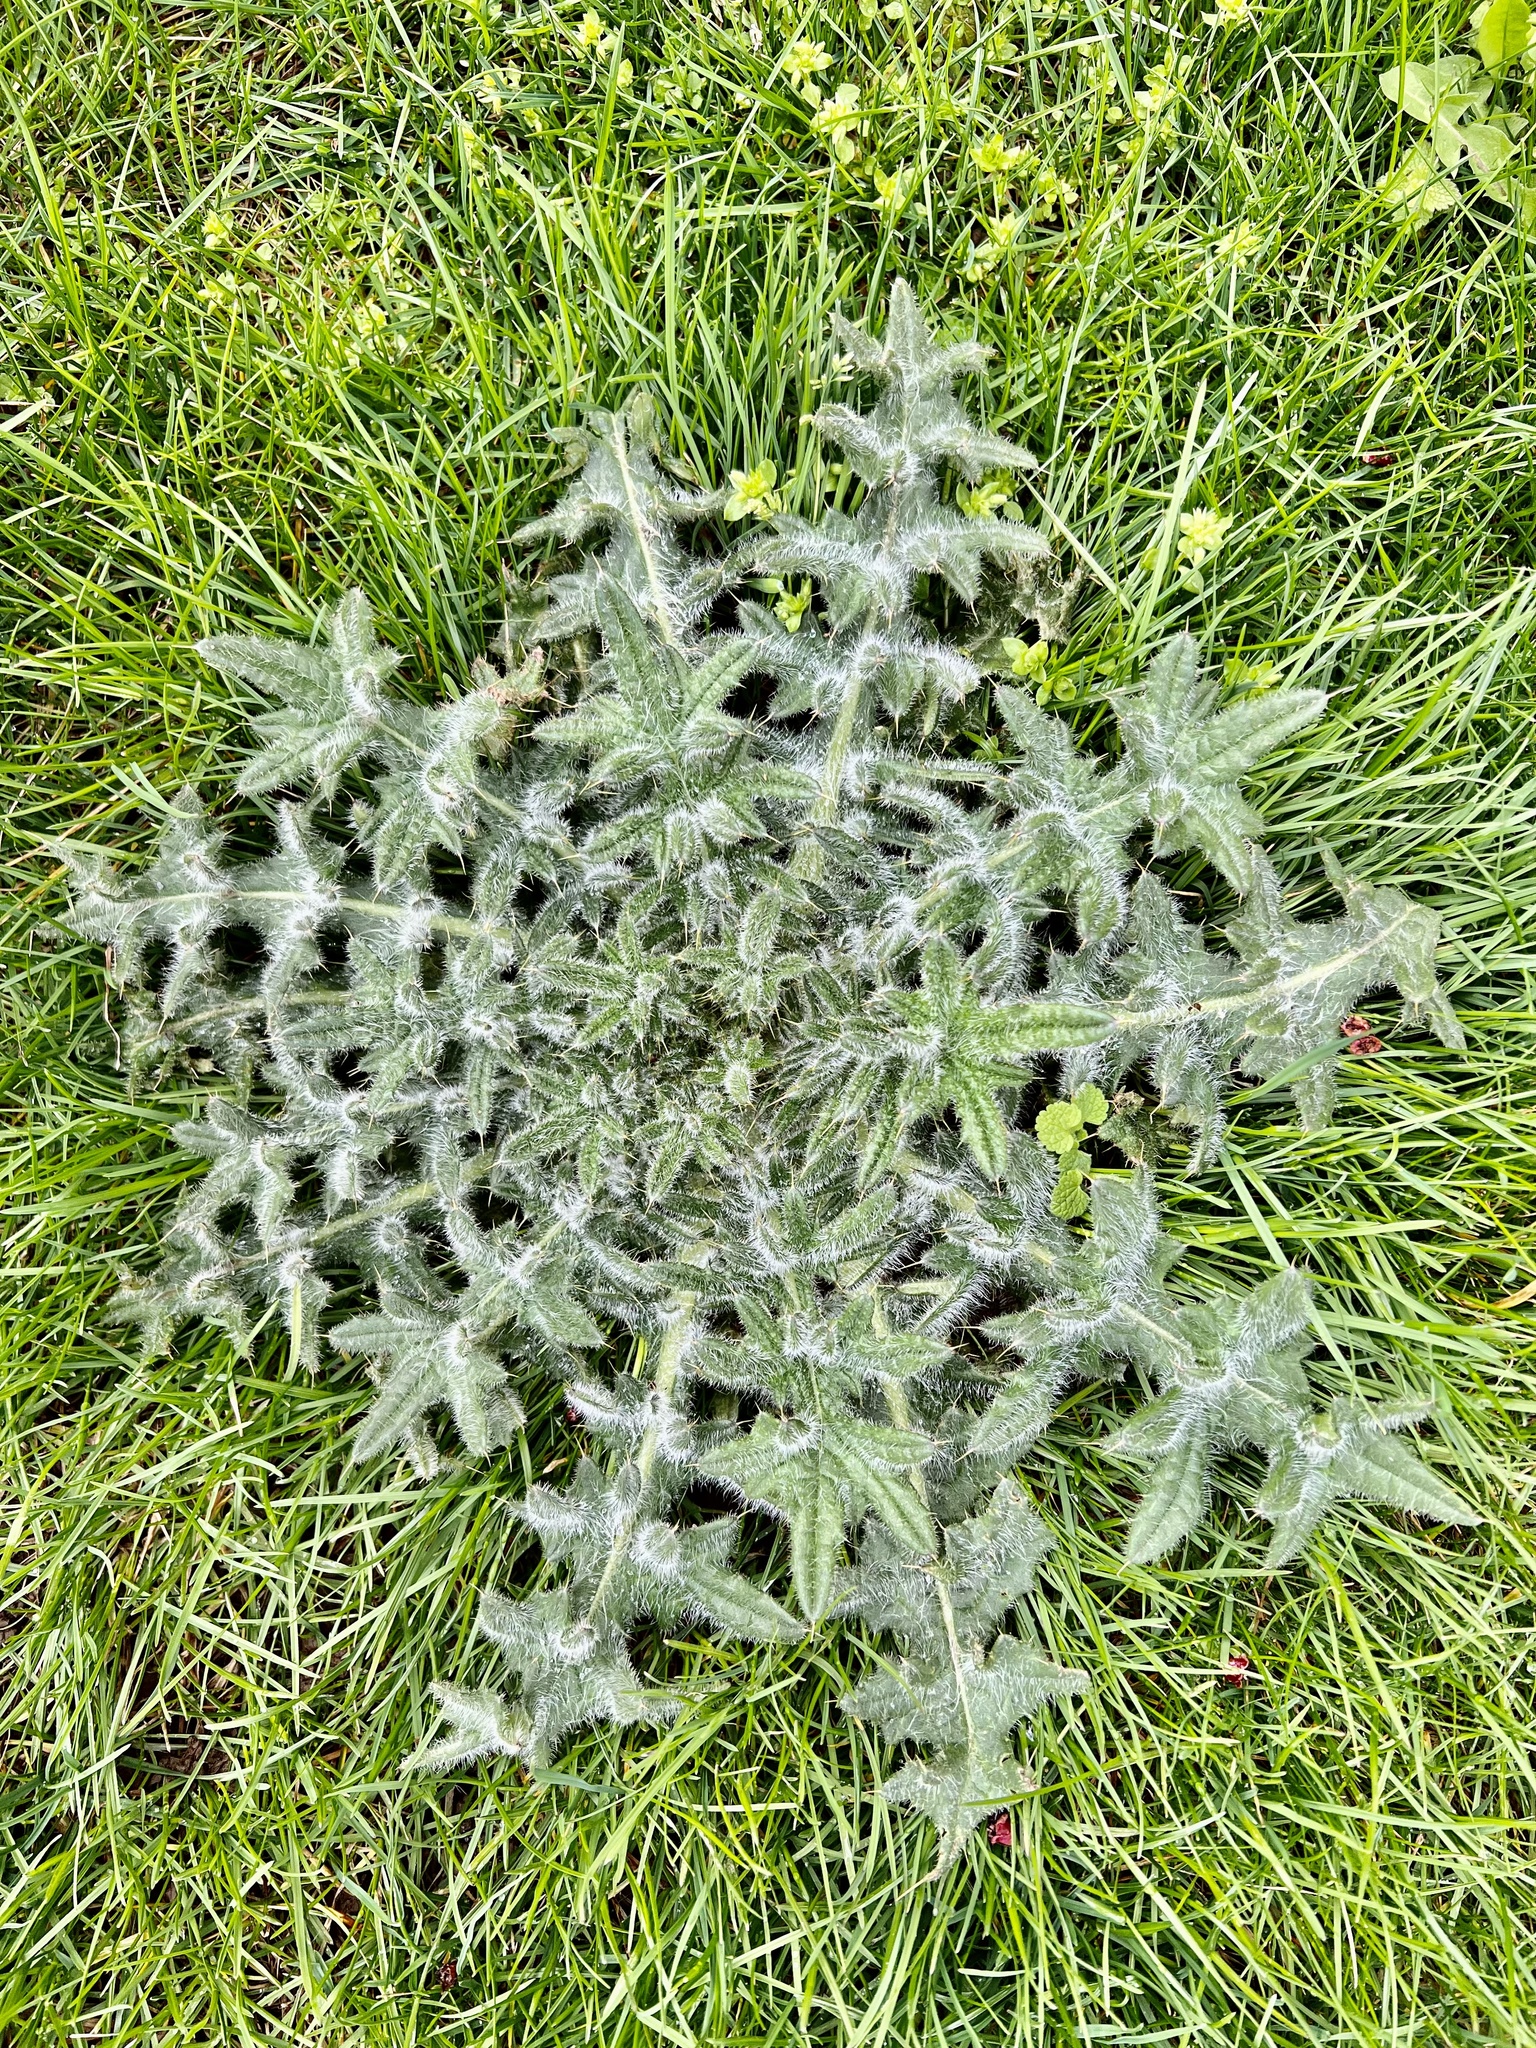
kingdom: Plantae
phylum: Tracheophyta
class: Magnoliopsida
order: Asterales
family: Asteraceae
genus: Cirsium
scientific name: Cirsium vulgare
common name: Bull thistle
